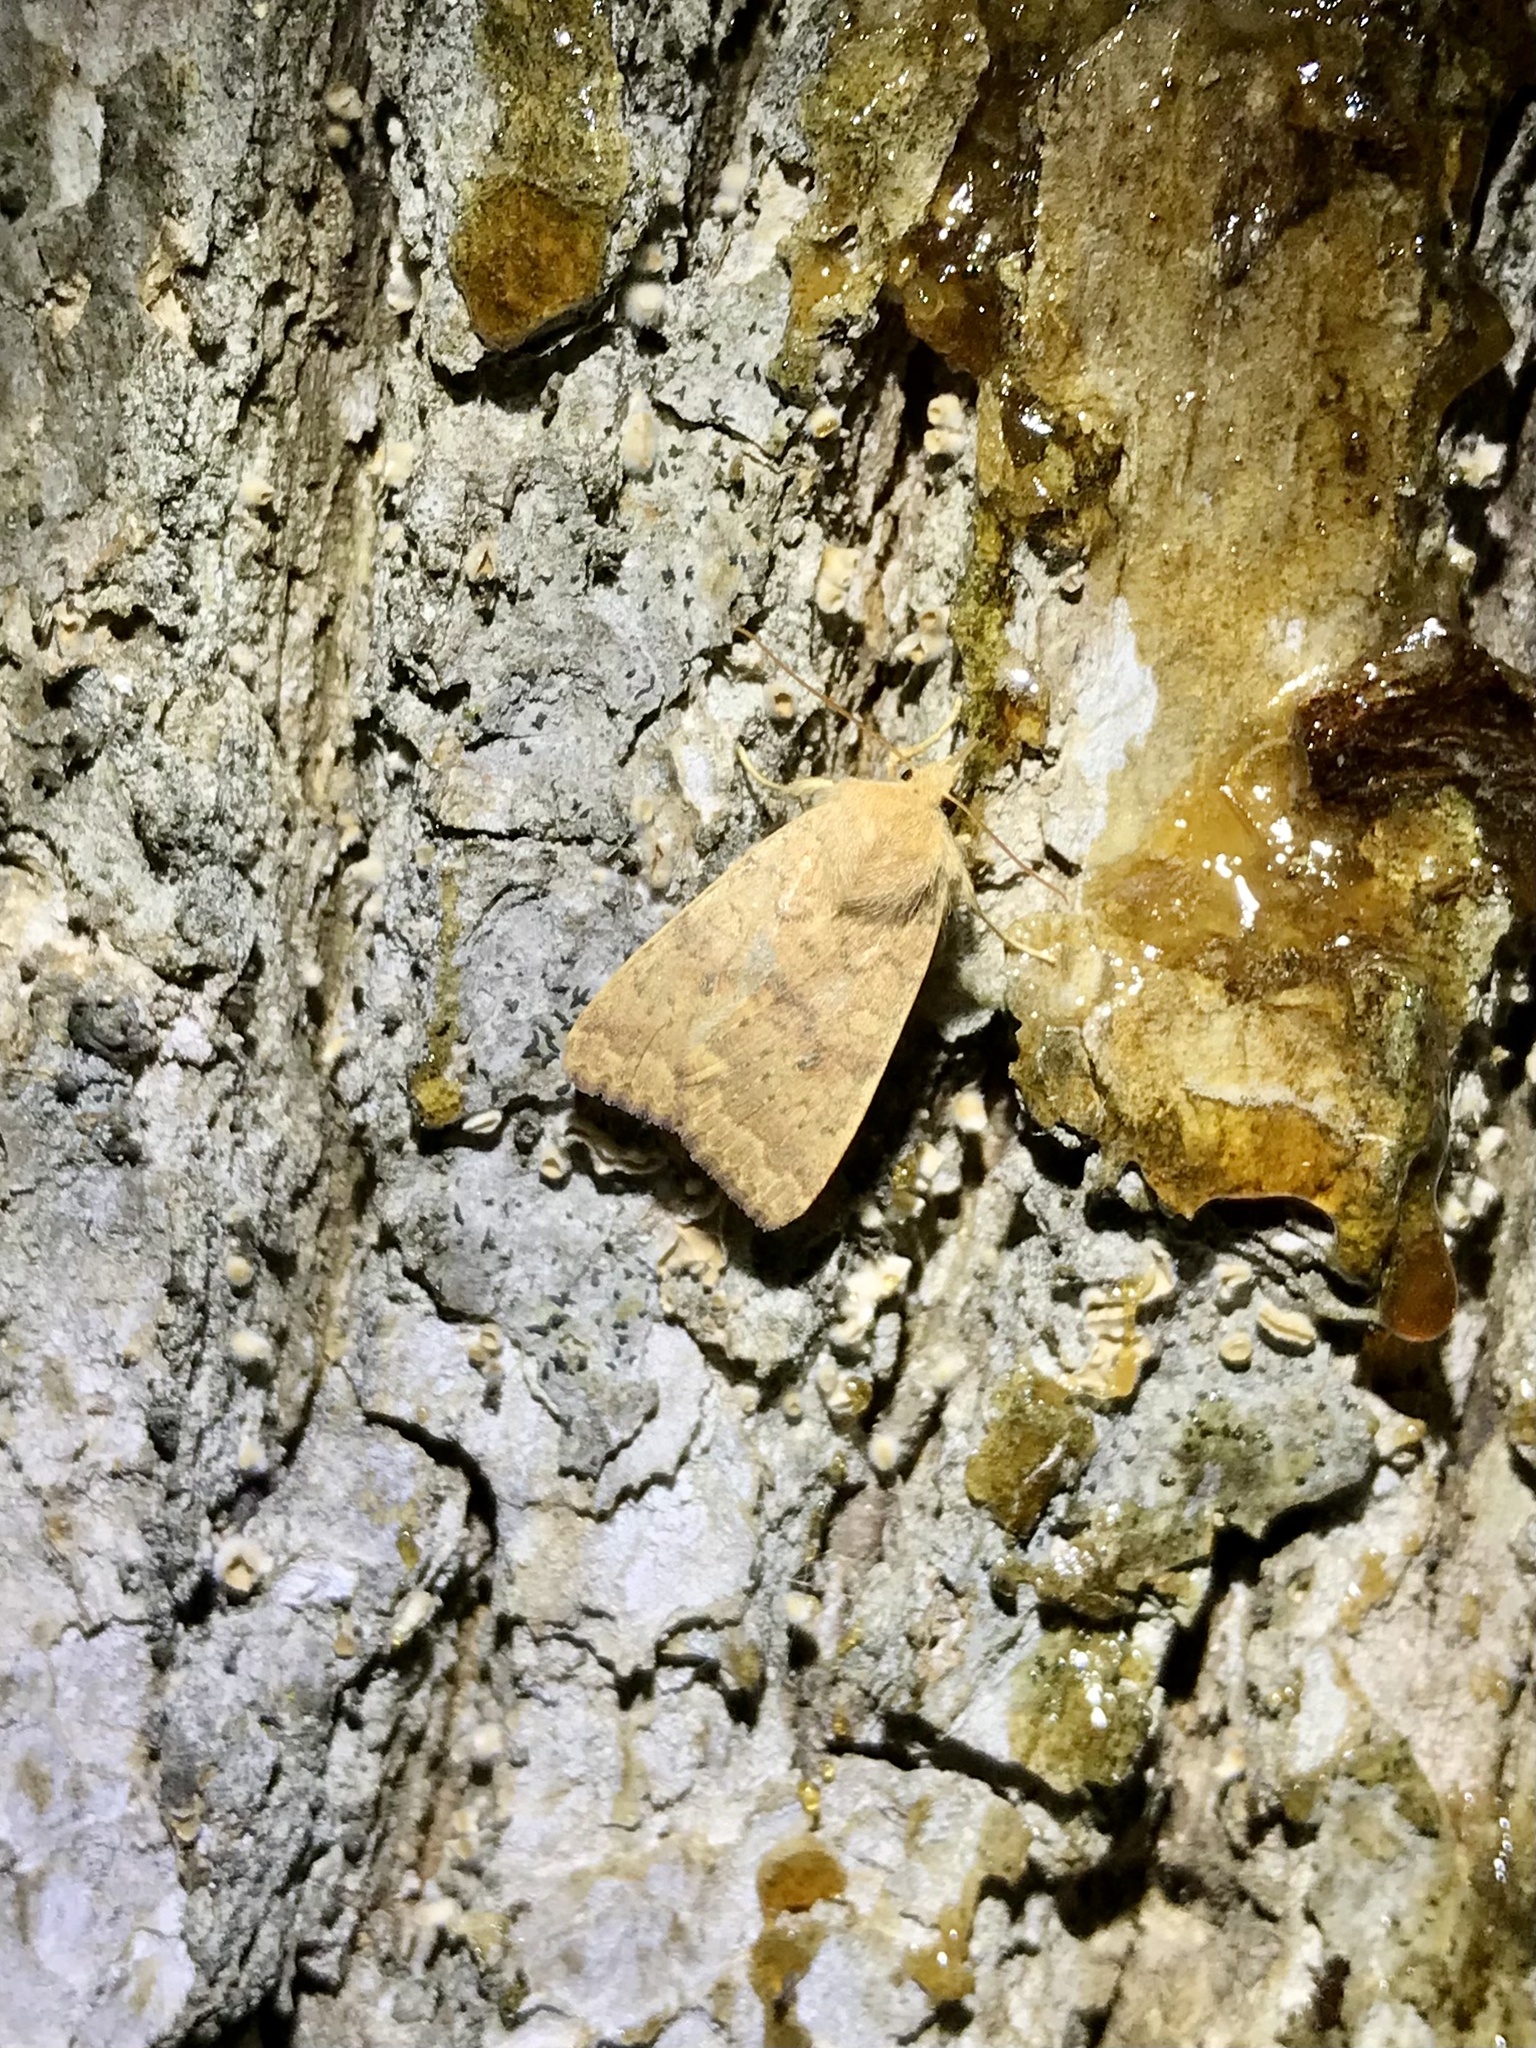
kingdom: Animalia
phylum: Arthropoda
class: Insecta
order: Lepidoptera
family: Noctuidae
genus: Agrochola
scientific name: Agrochola bicolorago
